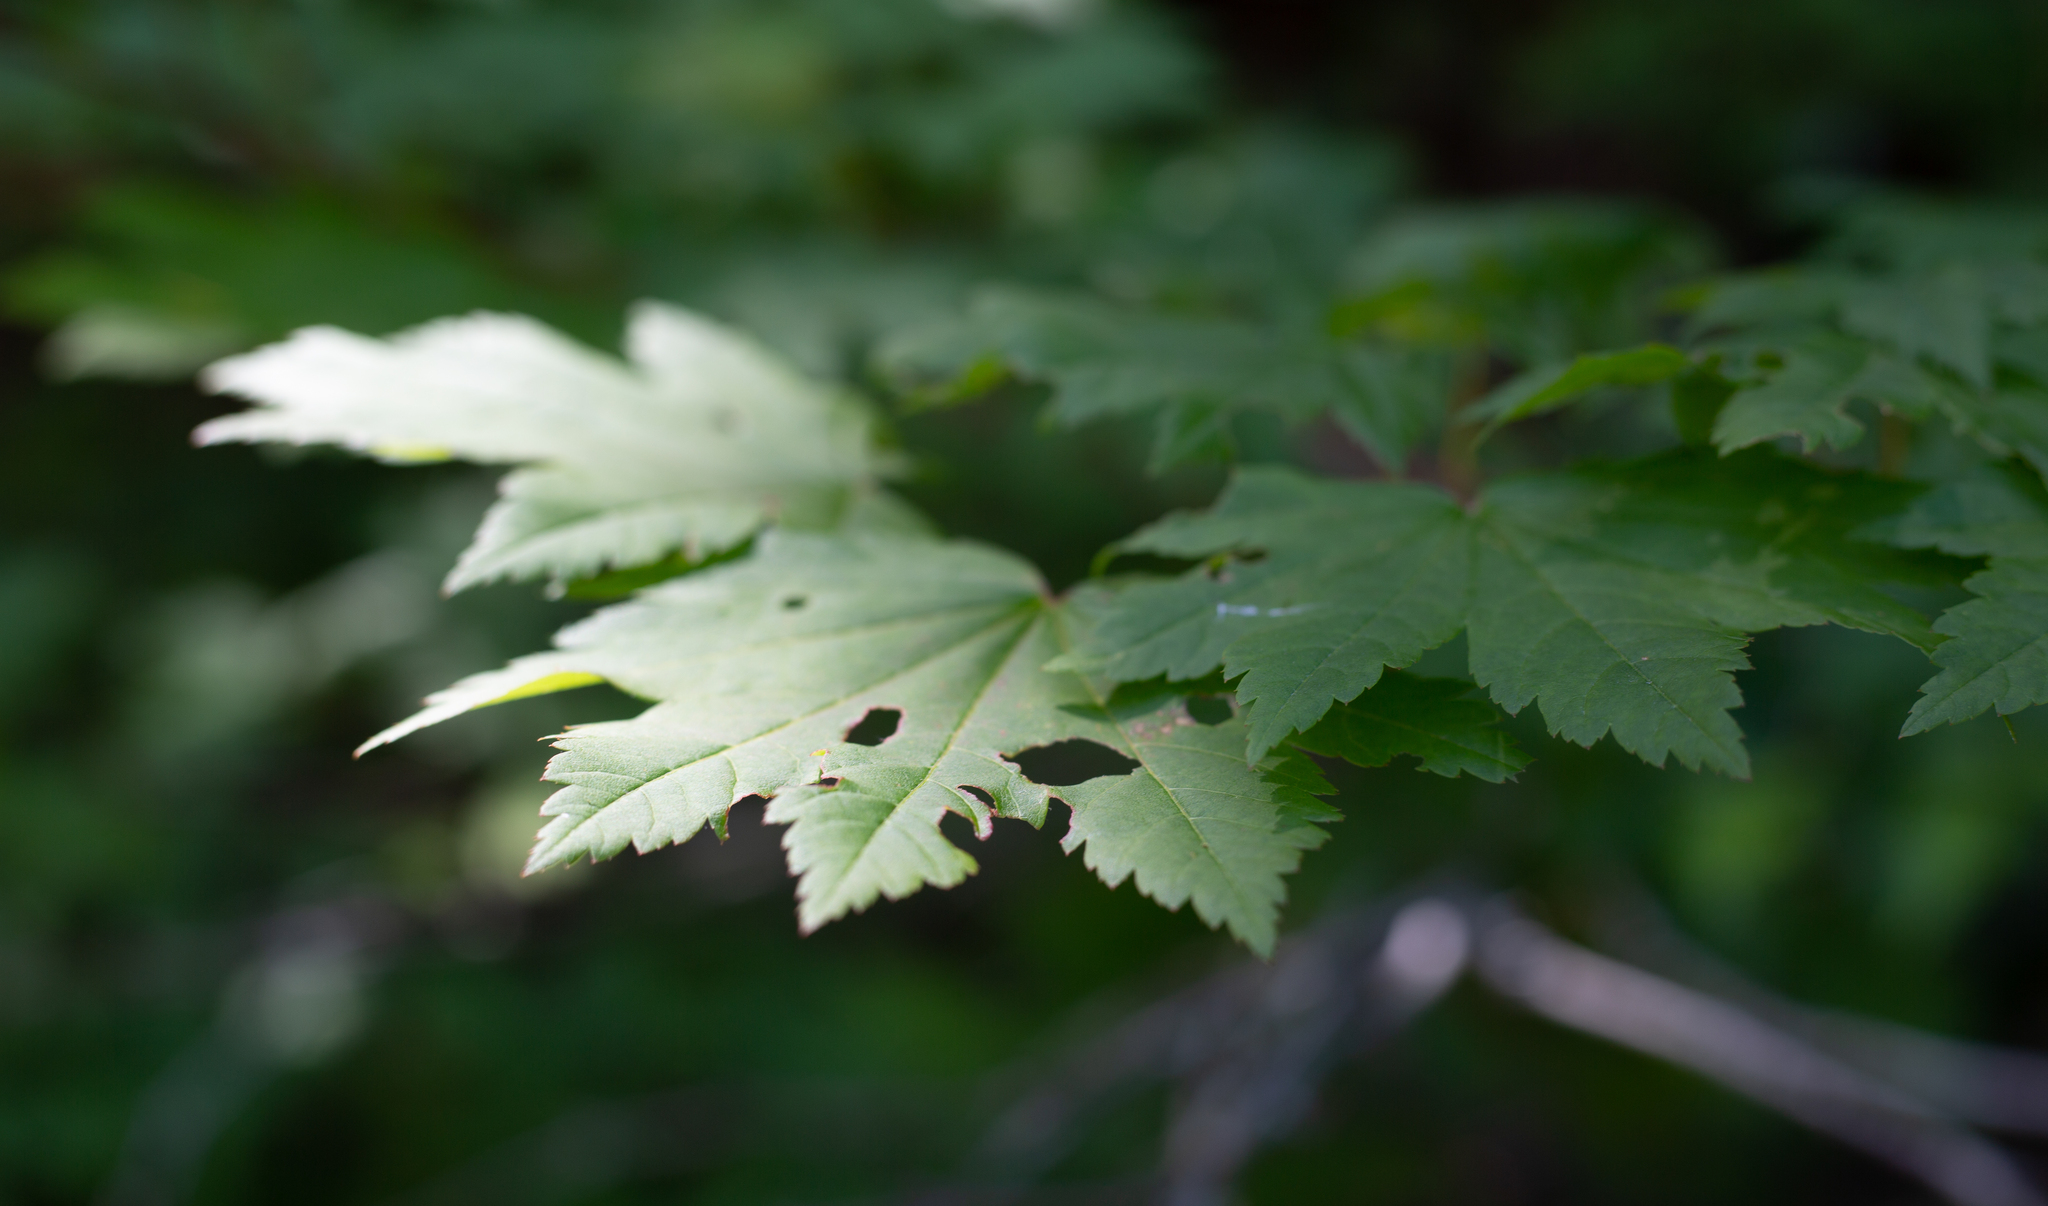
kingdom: Plantae
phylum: Tracheophyta
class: Magnoliopsida
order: Sapindales
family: Sapindaceae
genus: Acer
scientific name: Acer circinatum
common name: Vine maple
